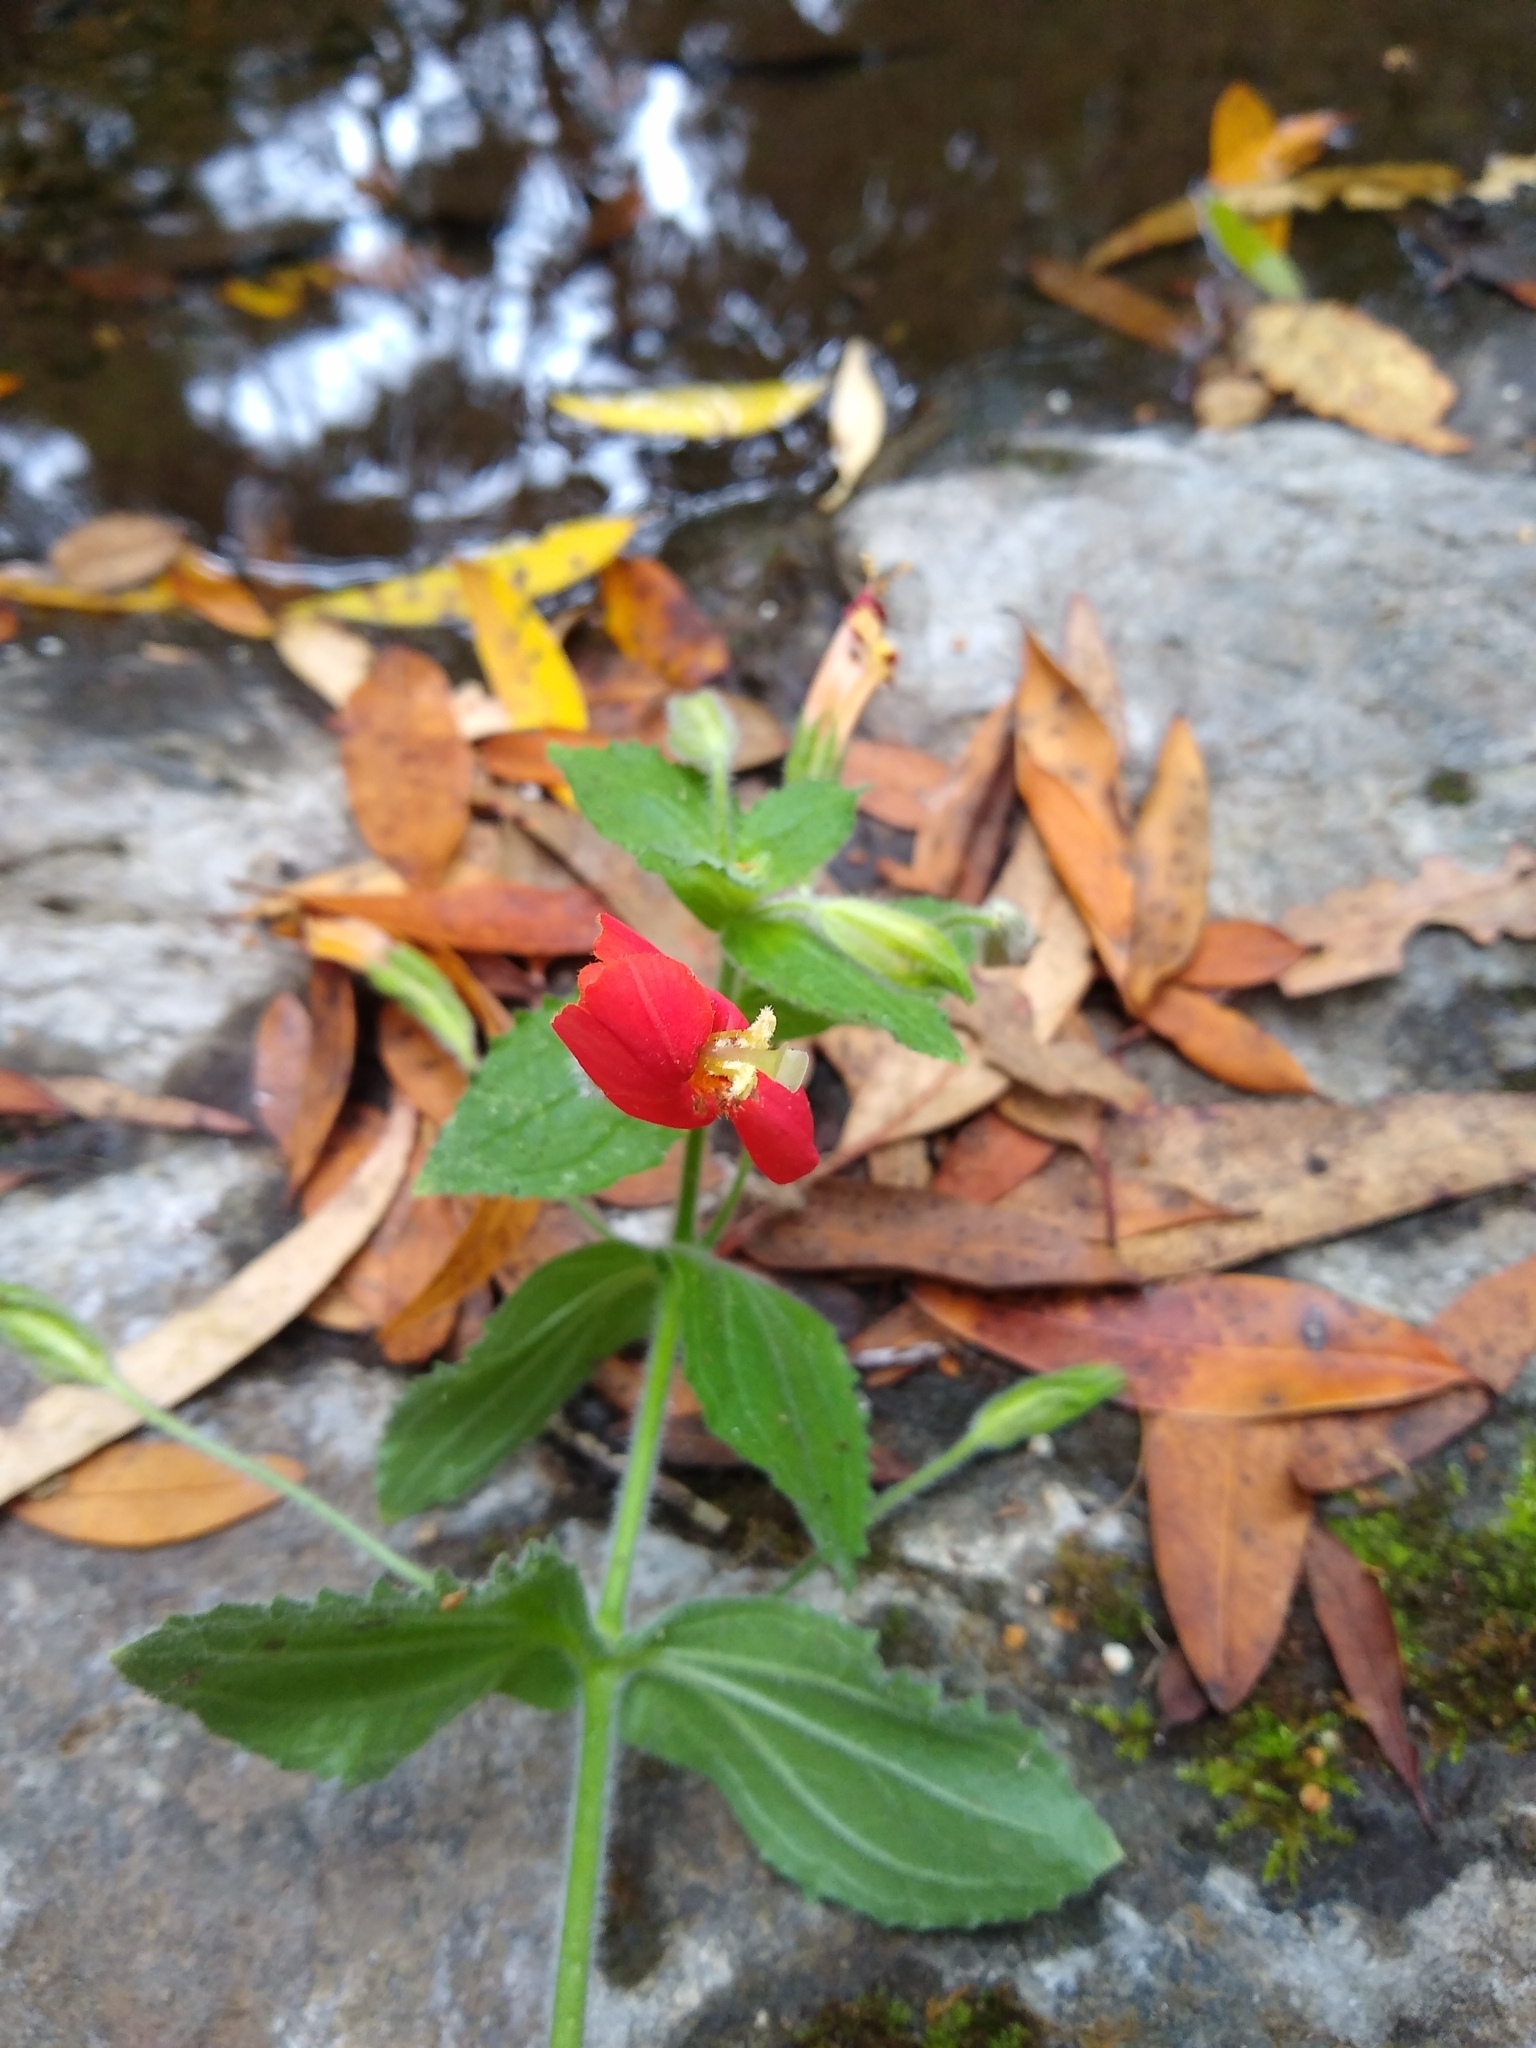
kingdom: Plantae
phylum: Tracheophyta
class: Magnoliopsida
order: Lamiales
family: Phrymaceae
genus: Erythranthe
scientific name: Erythranthe cardinalis
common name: Scarlet monkey-flower
